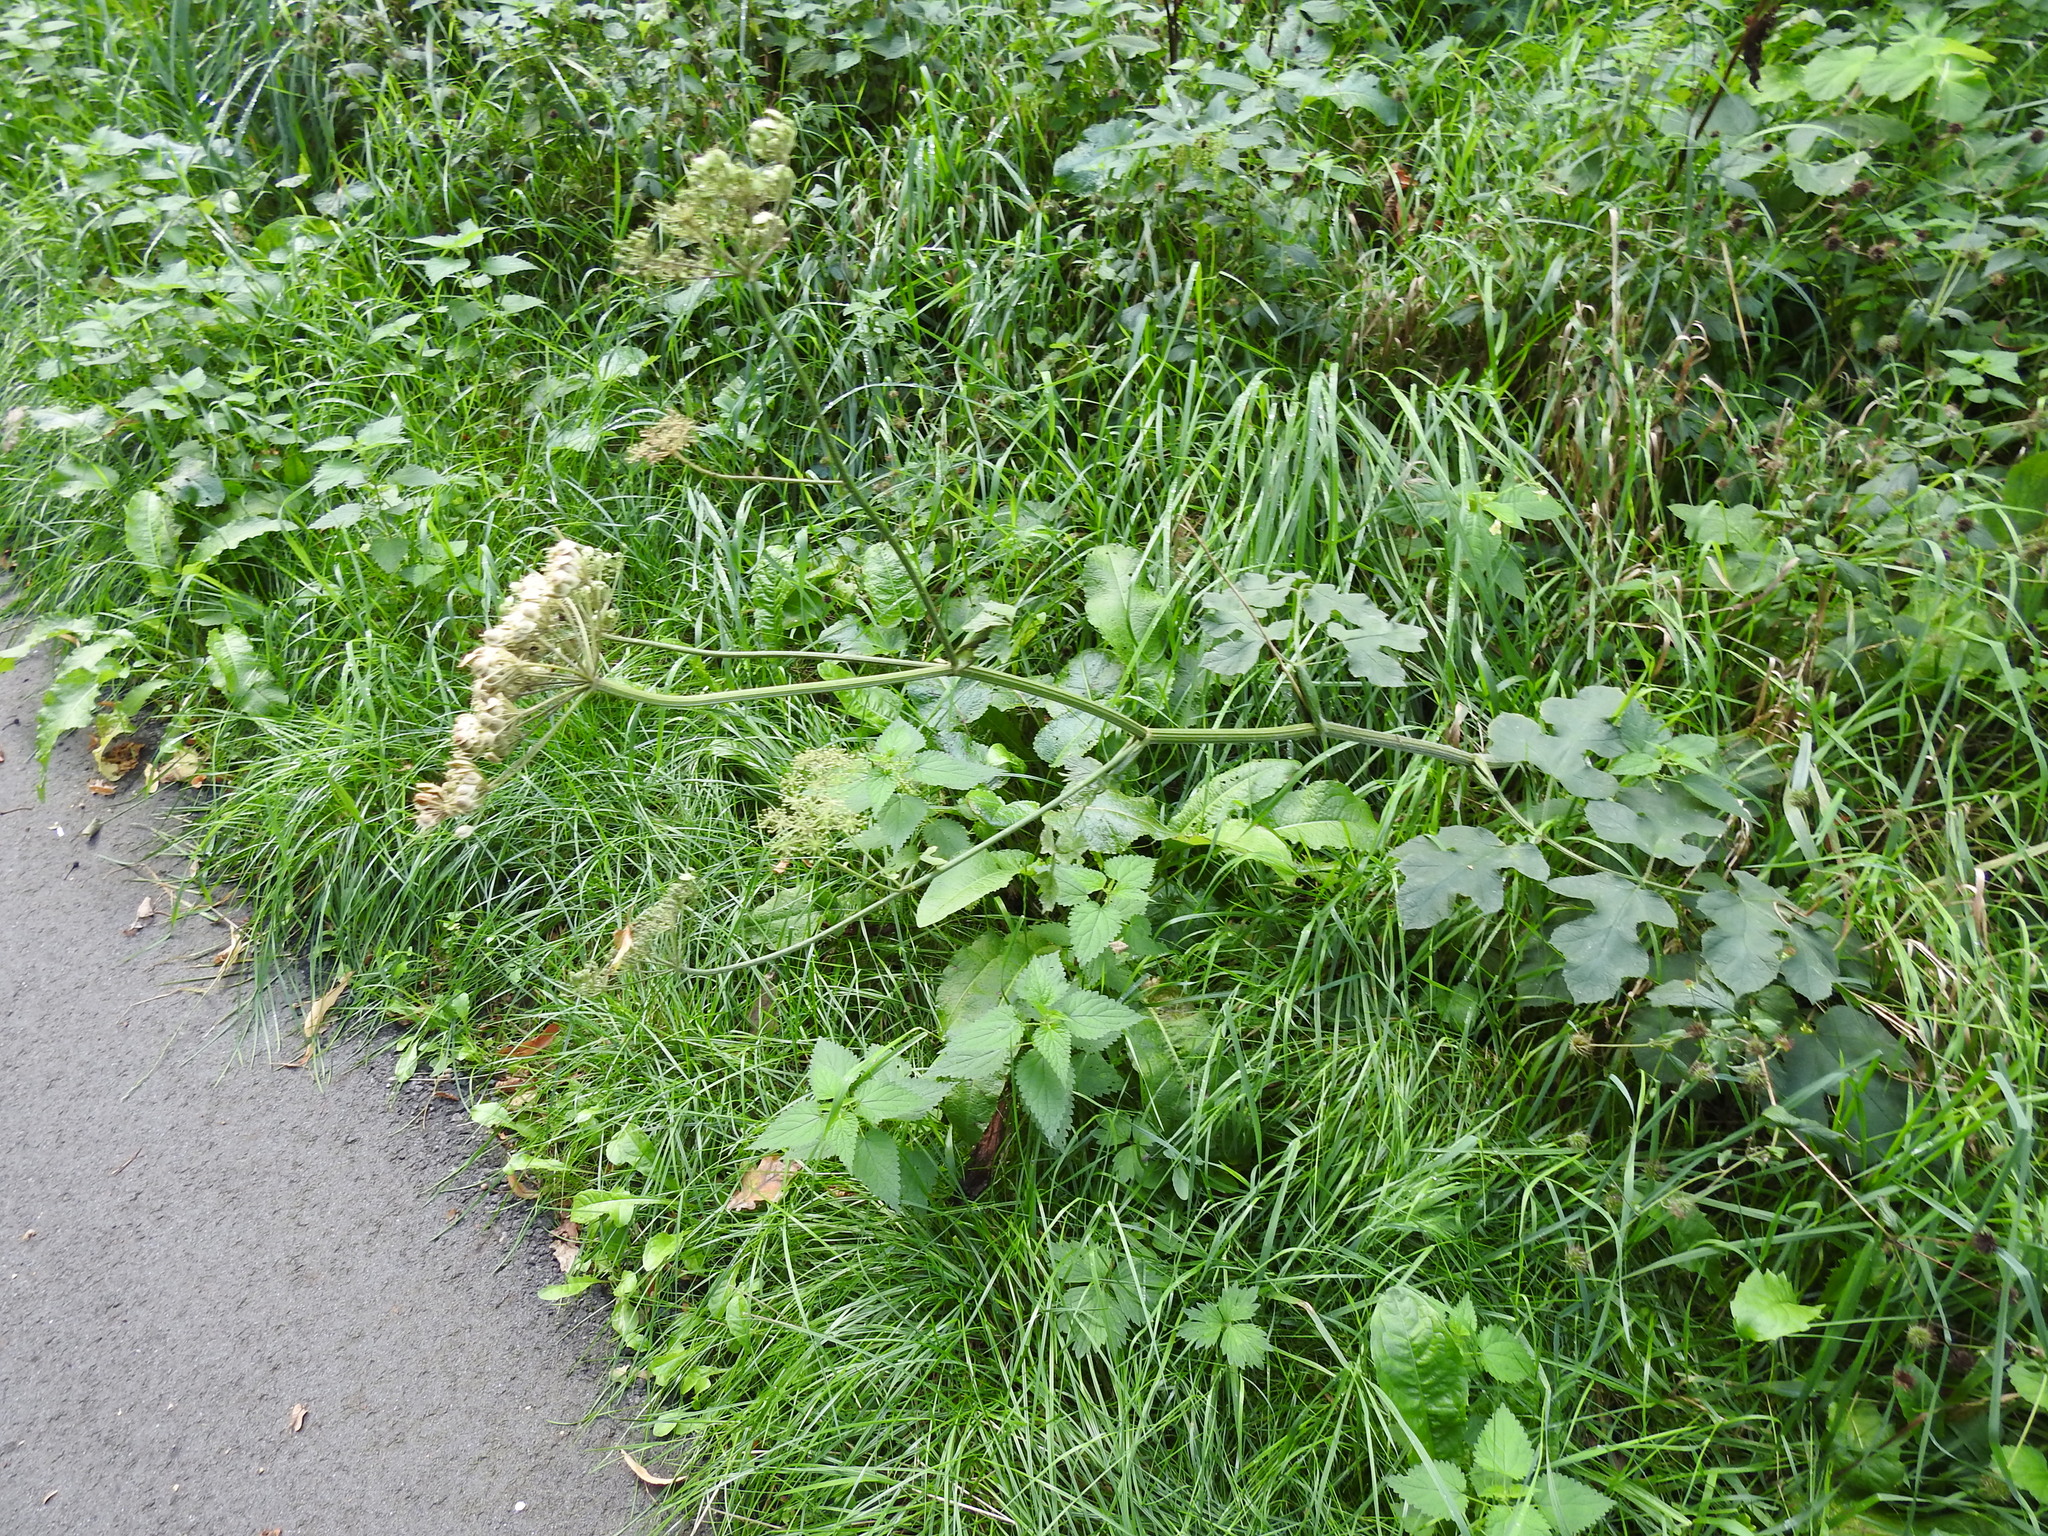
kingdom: Plantae
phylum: Tracheophyta
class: Magnoliopsida
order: Apiales
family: Apiaceae
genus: Heracleum
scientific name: Heracleum sphondylium
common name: Hogweed
